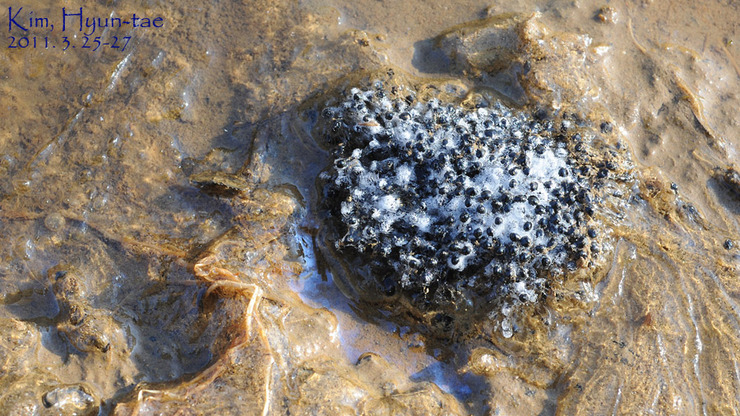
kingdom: Animalia
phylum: Chordata
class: Amphibia
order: Anura
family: Ranidae
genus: Rana
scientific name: Rana uenoi
